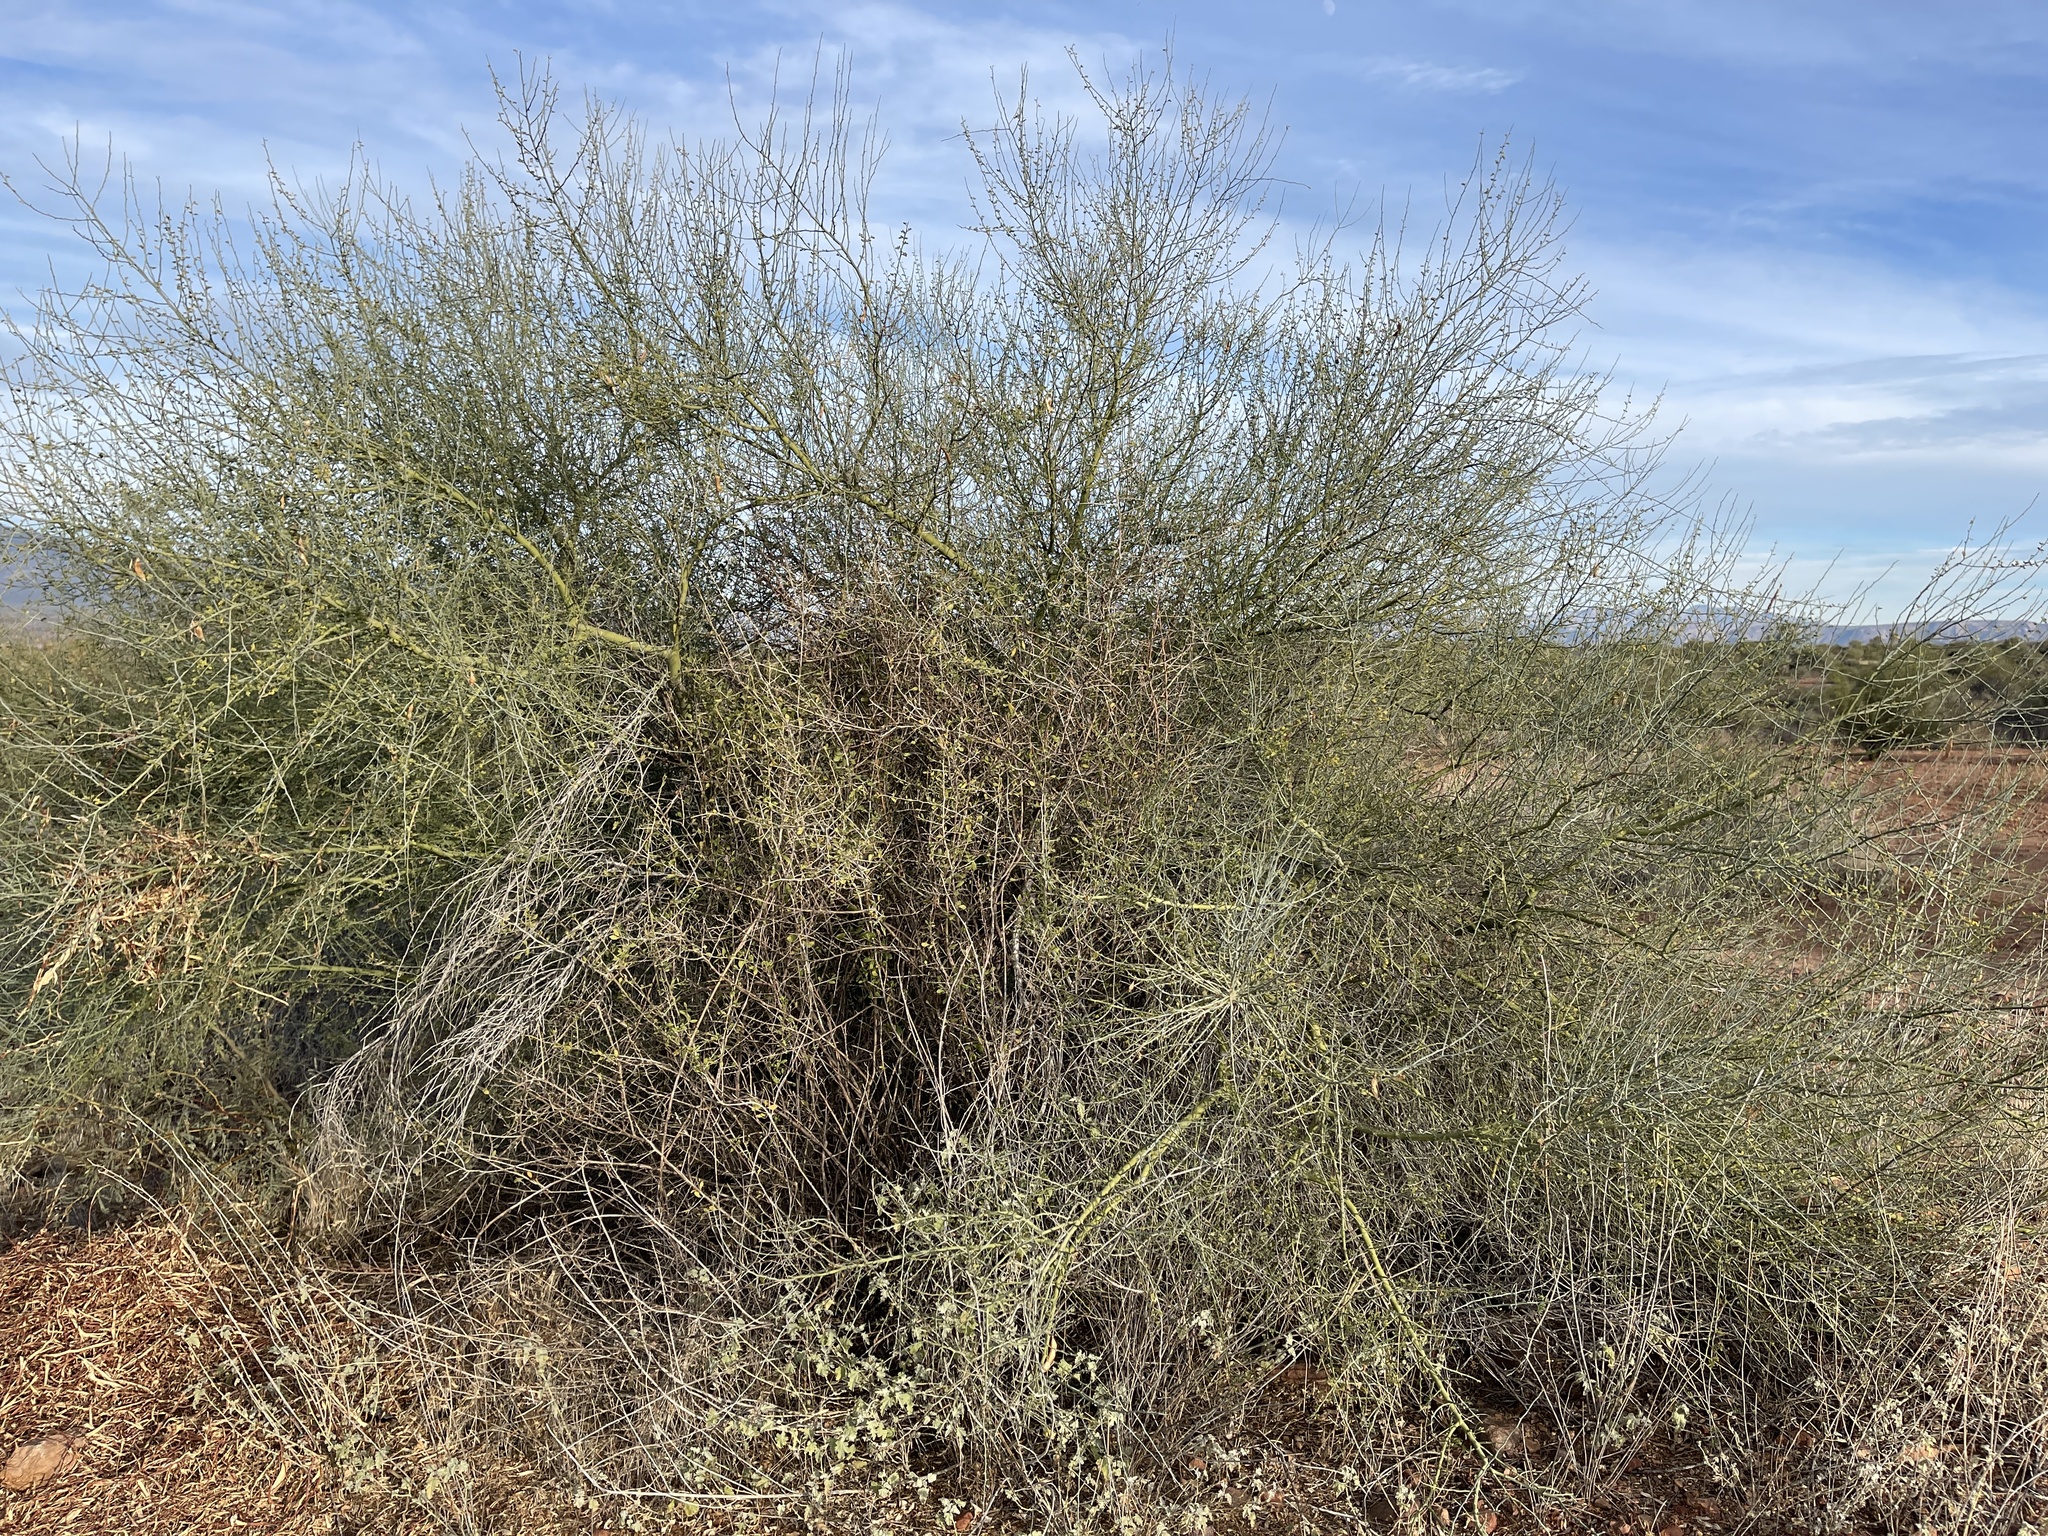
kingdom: Plantae
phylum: Tracheophyta
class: Magnoliopsida
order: Fabales
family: Fabaceae
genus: Parkinsonia
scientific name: Parkinsonia florida
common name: Blue paloverde
